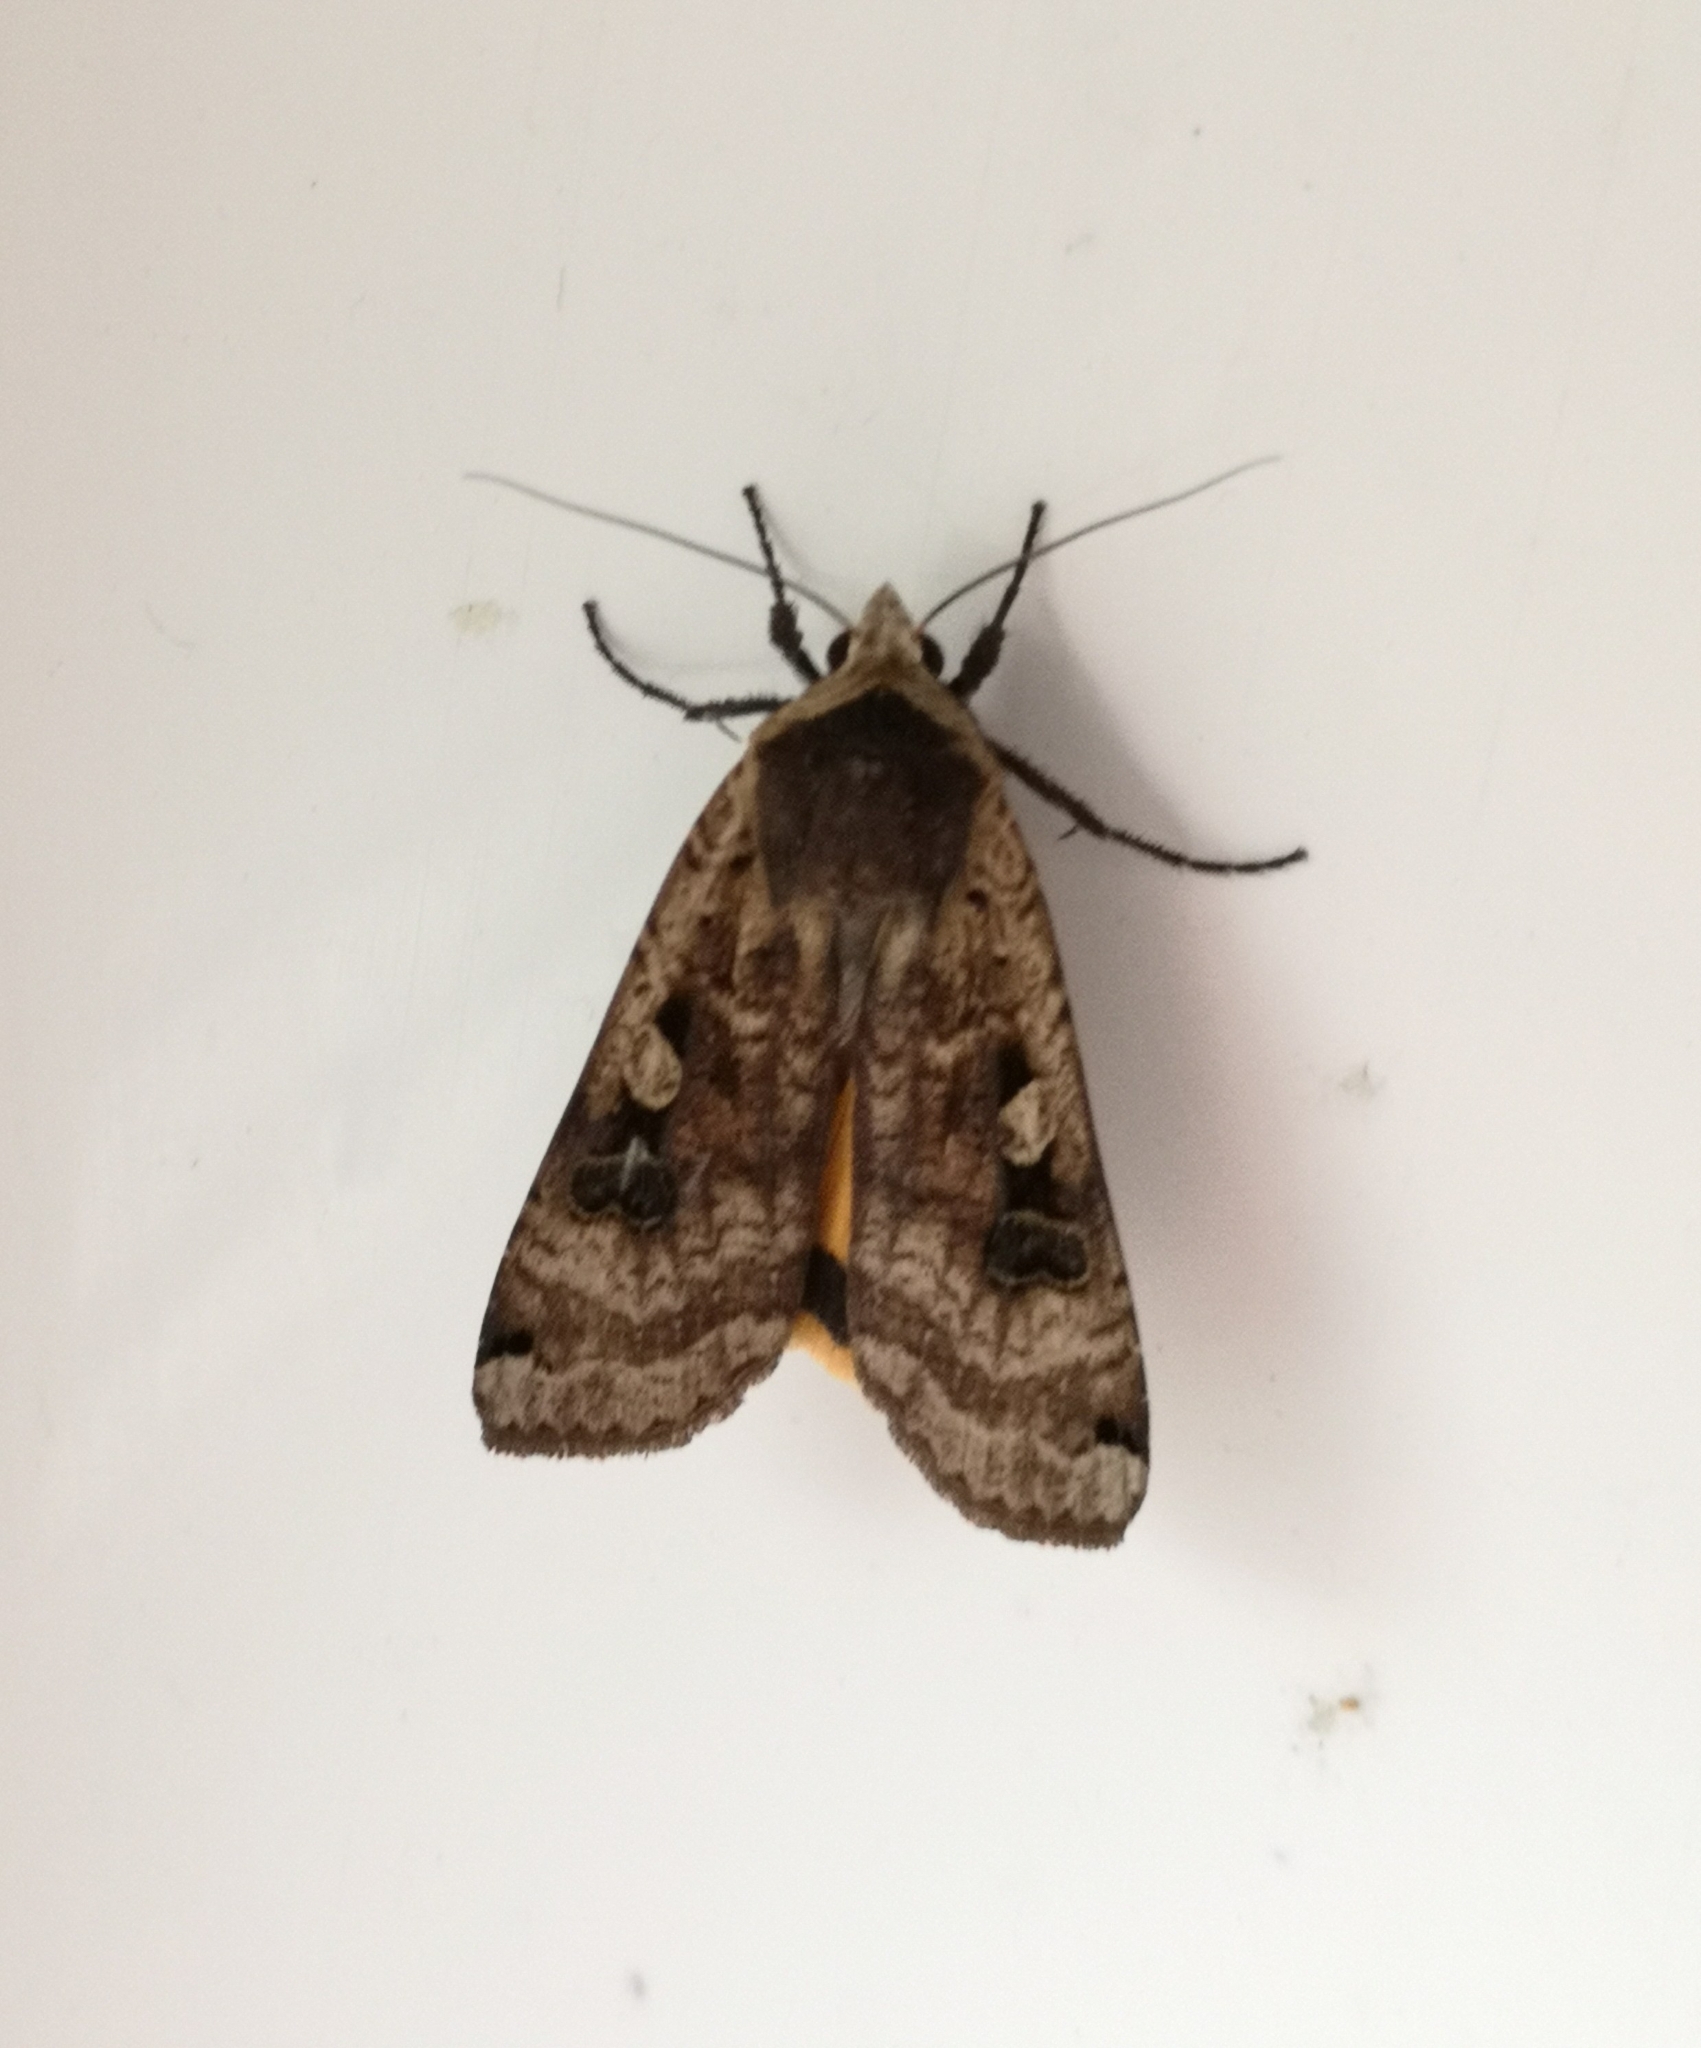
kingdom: Animalia
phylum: Arthropoda
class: Insecta
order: Lepidoptera
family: Noctuidae
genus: Noctua
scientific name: Noctua pronuba
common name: Large yellow underwing
